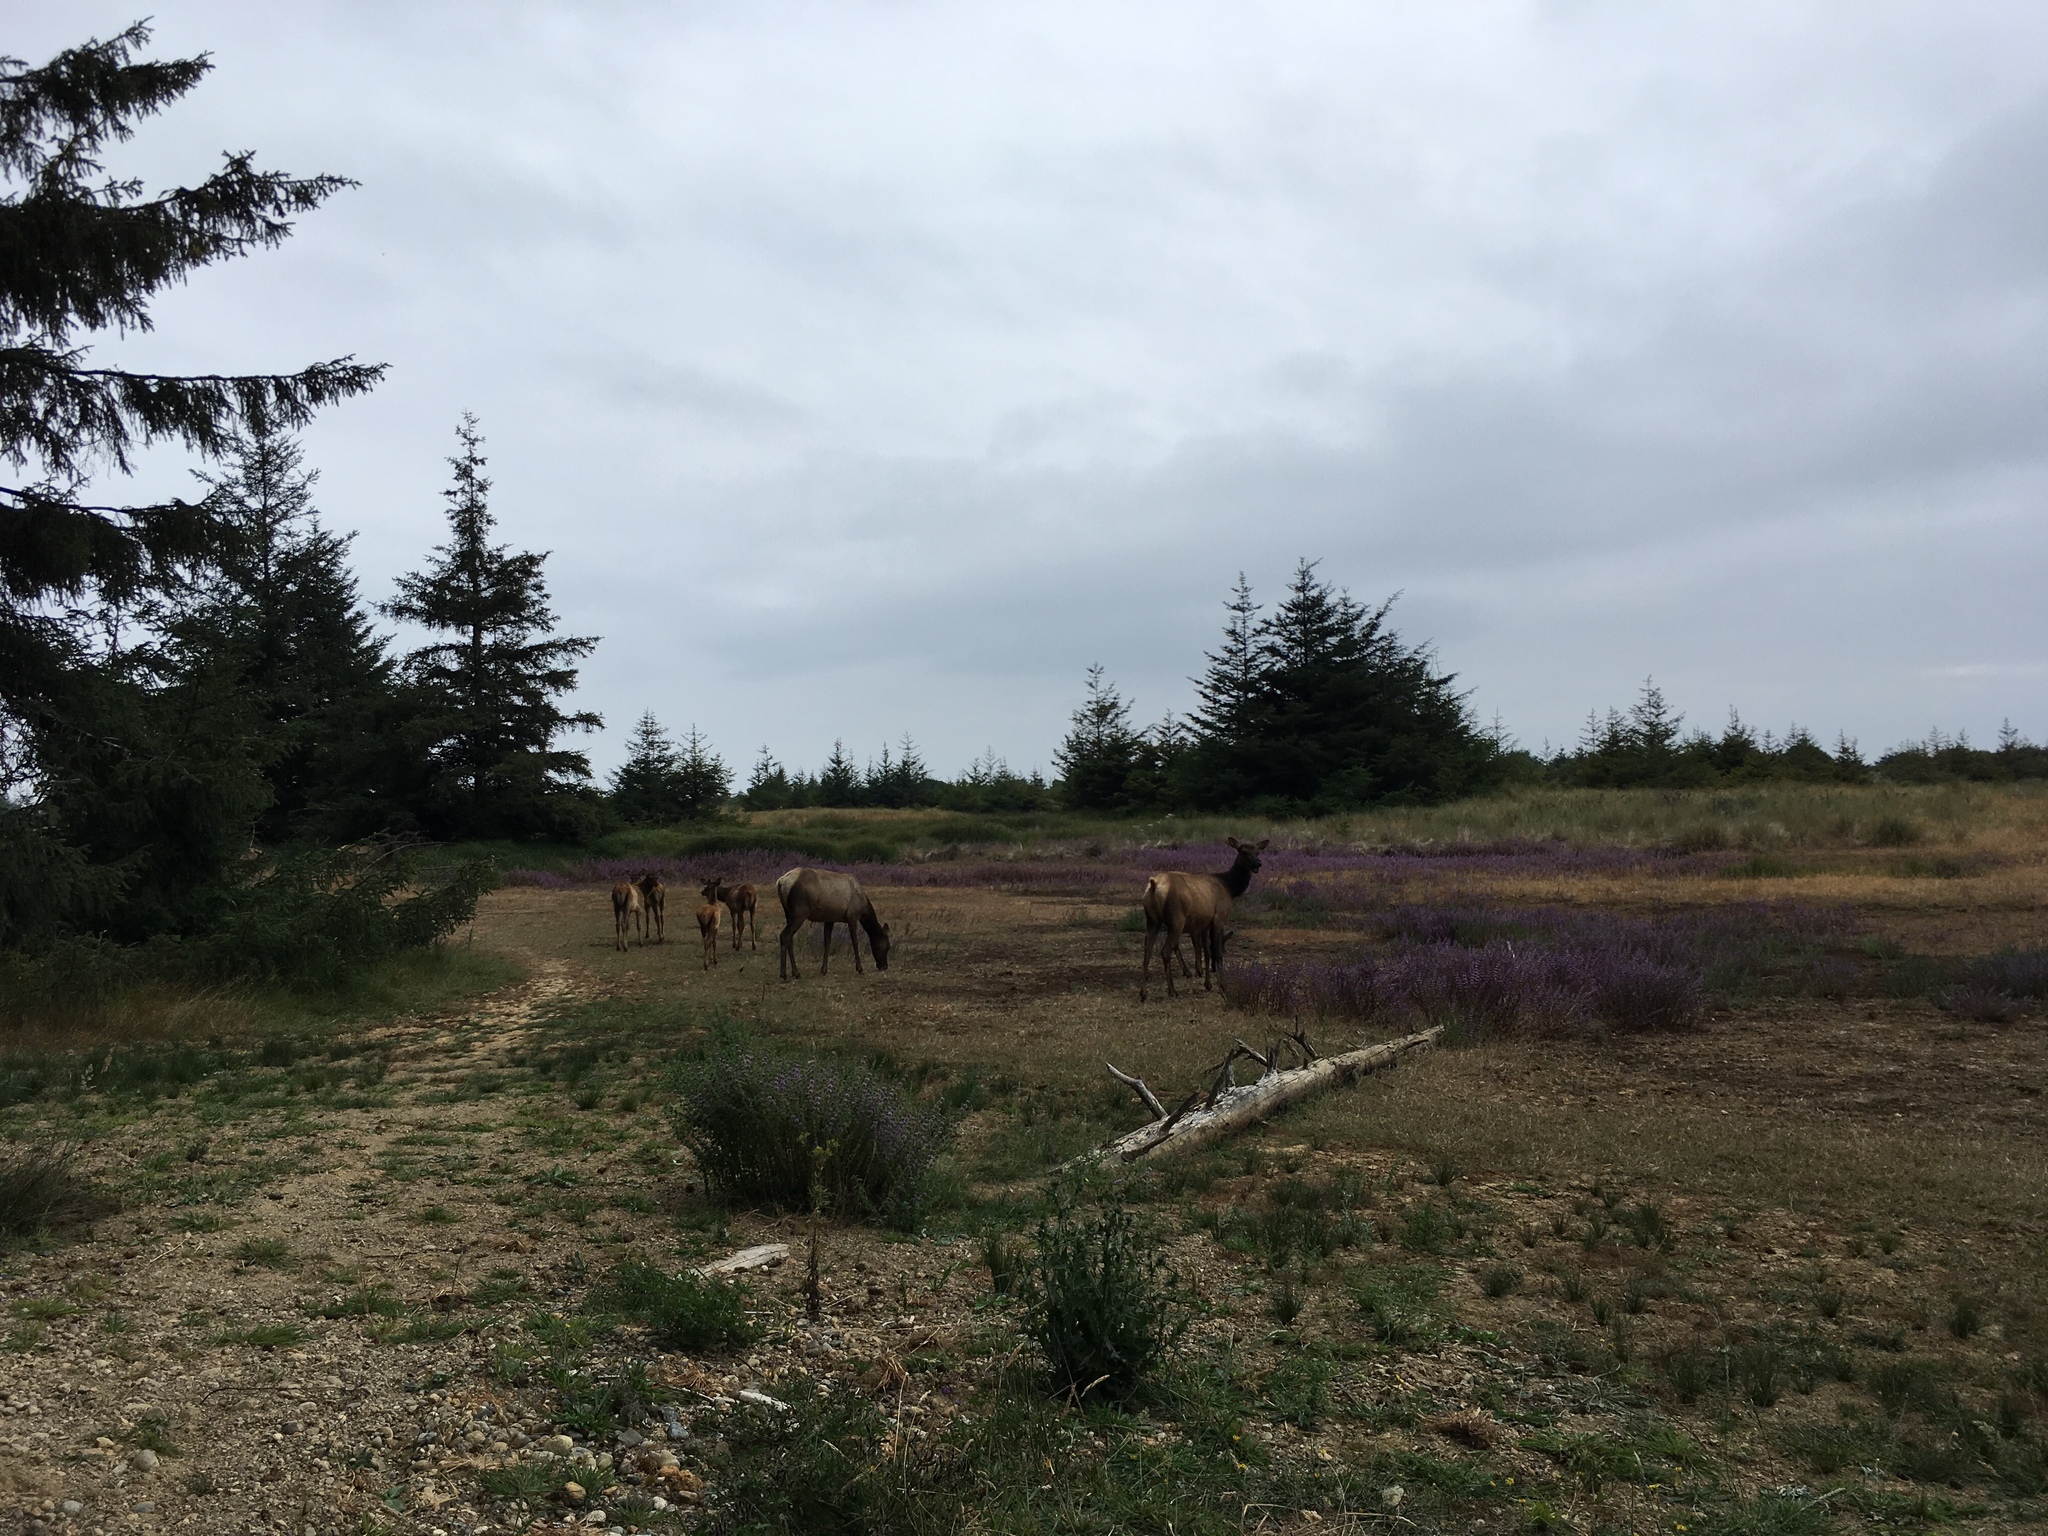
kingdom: Animalia
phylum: Chordata
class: Mammalia
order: Artiodactyla
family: Cervidae
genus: Cervus
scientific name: Cervus elaphus
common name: Red deer
